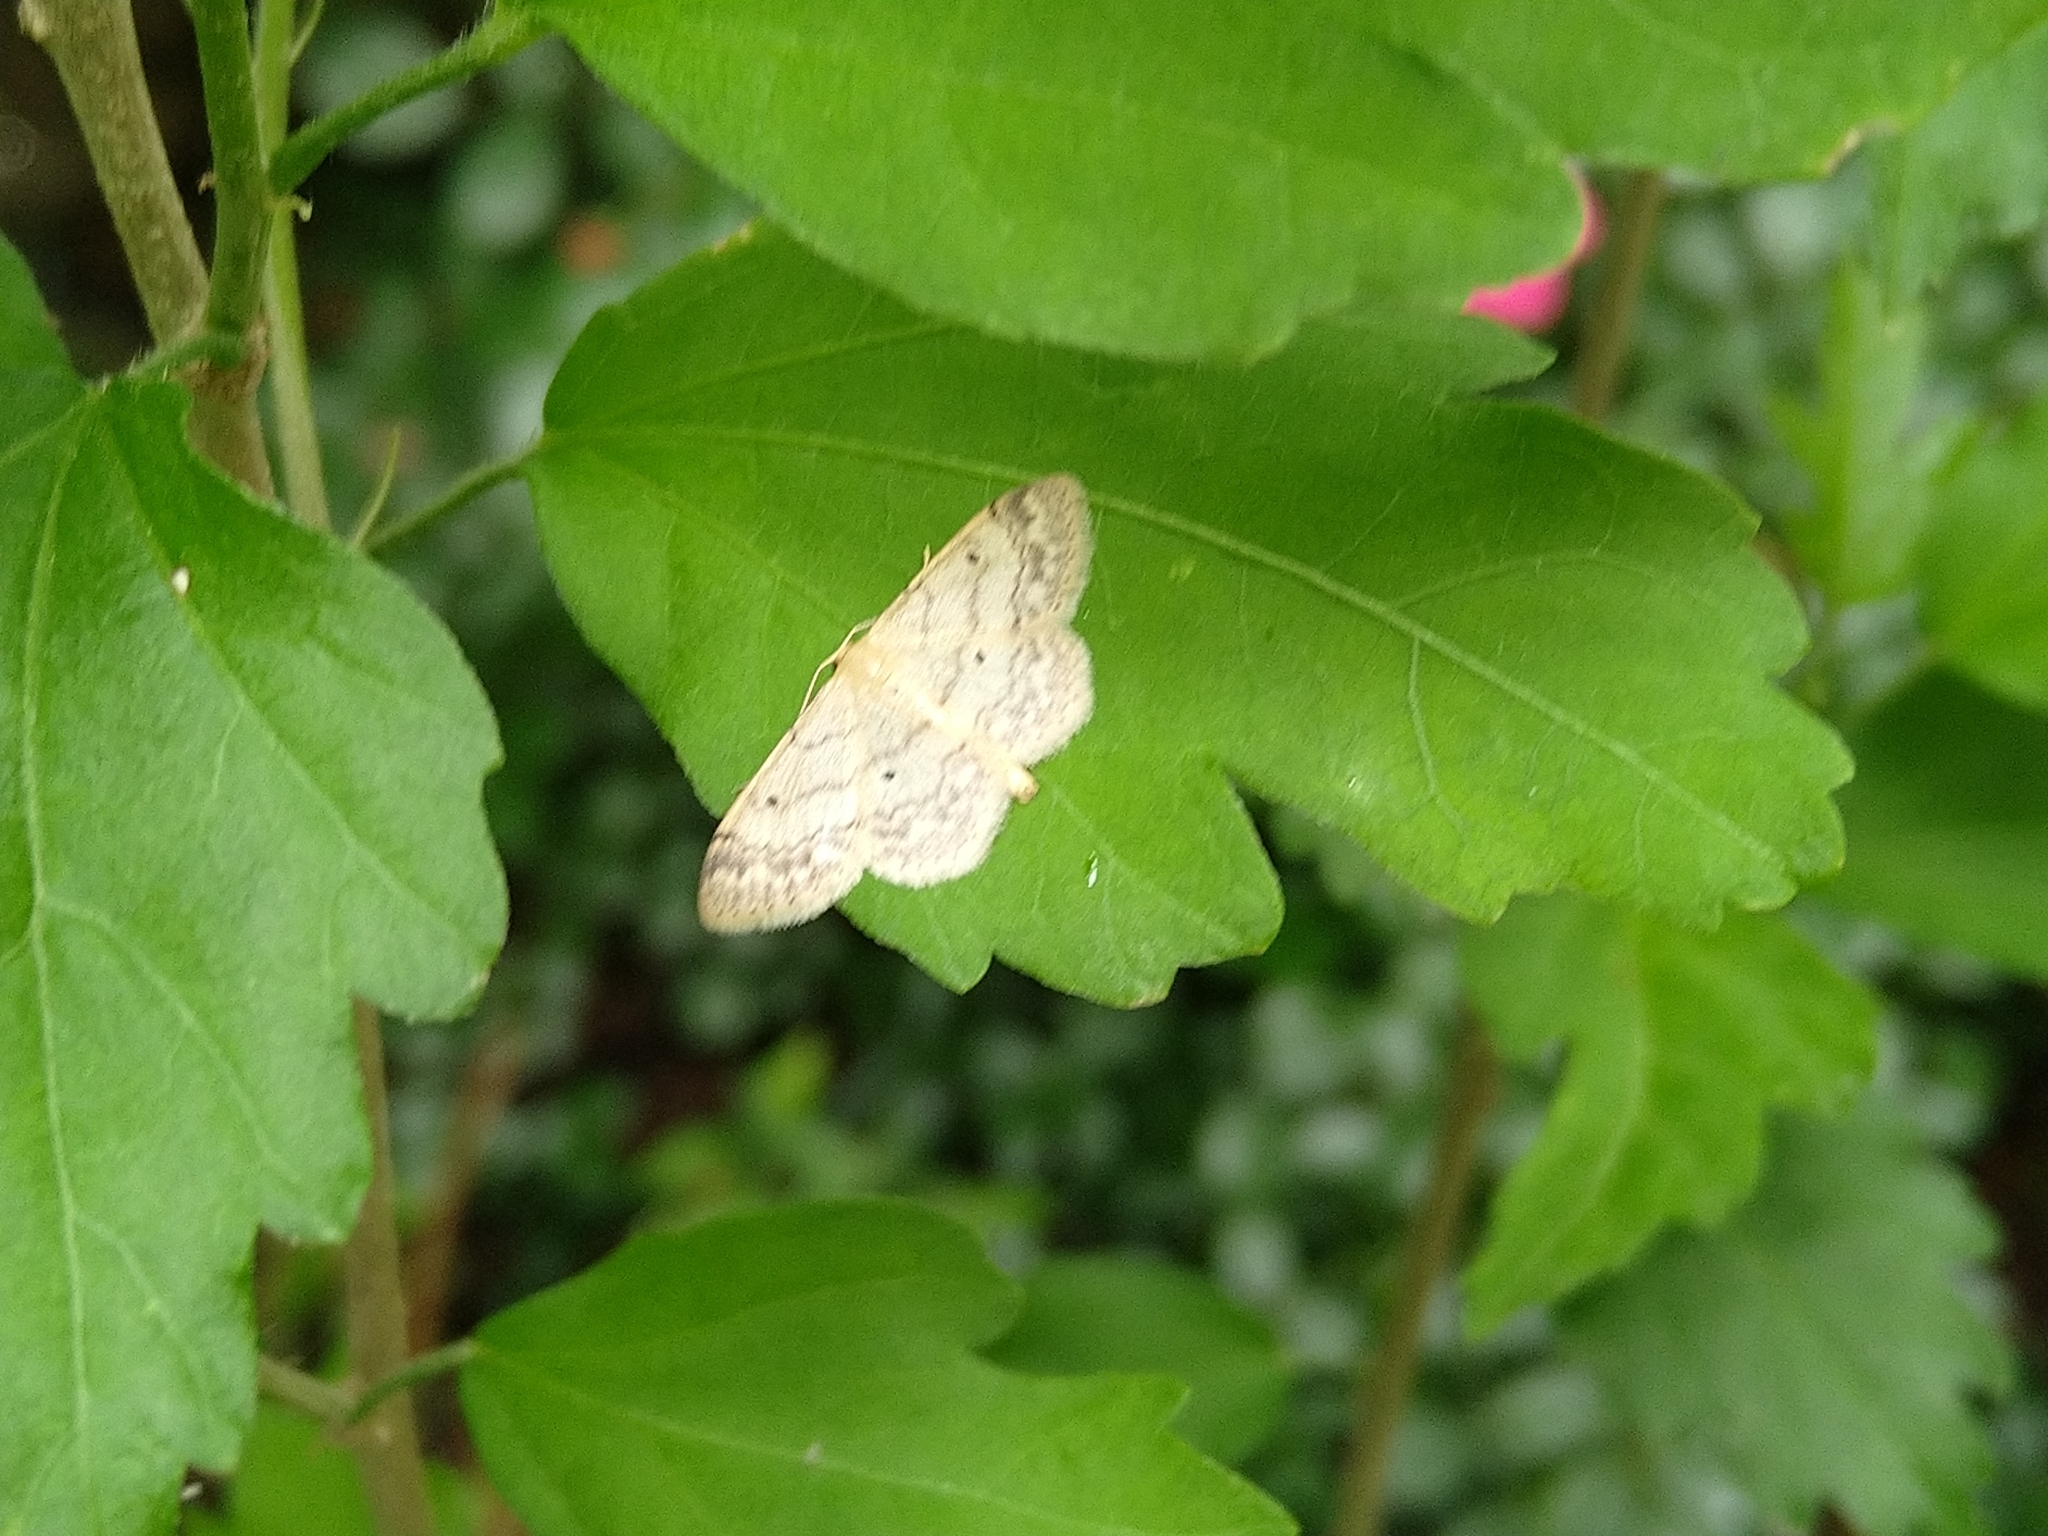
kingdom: Animalia
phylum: Arthropoda
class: Insecta
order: Lepidoptera
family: Geometridae
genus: Idaea
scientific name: Idaea biselata
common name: Small fan-footed wave
